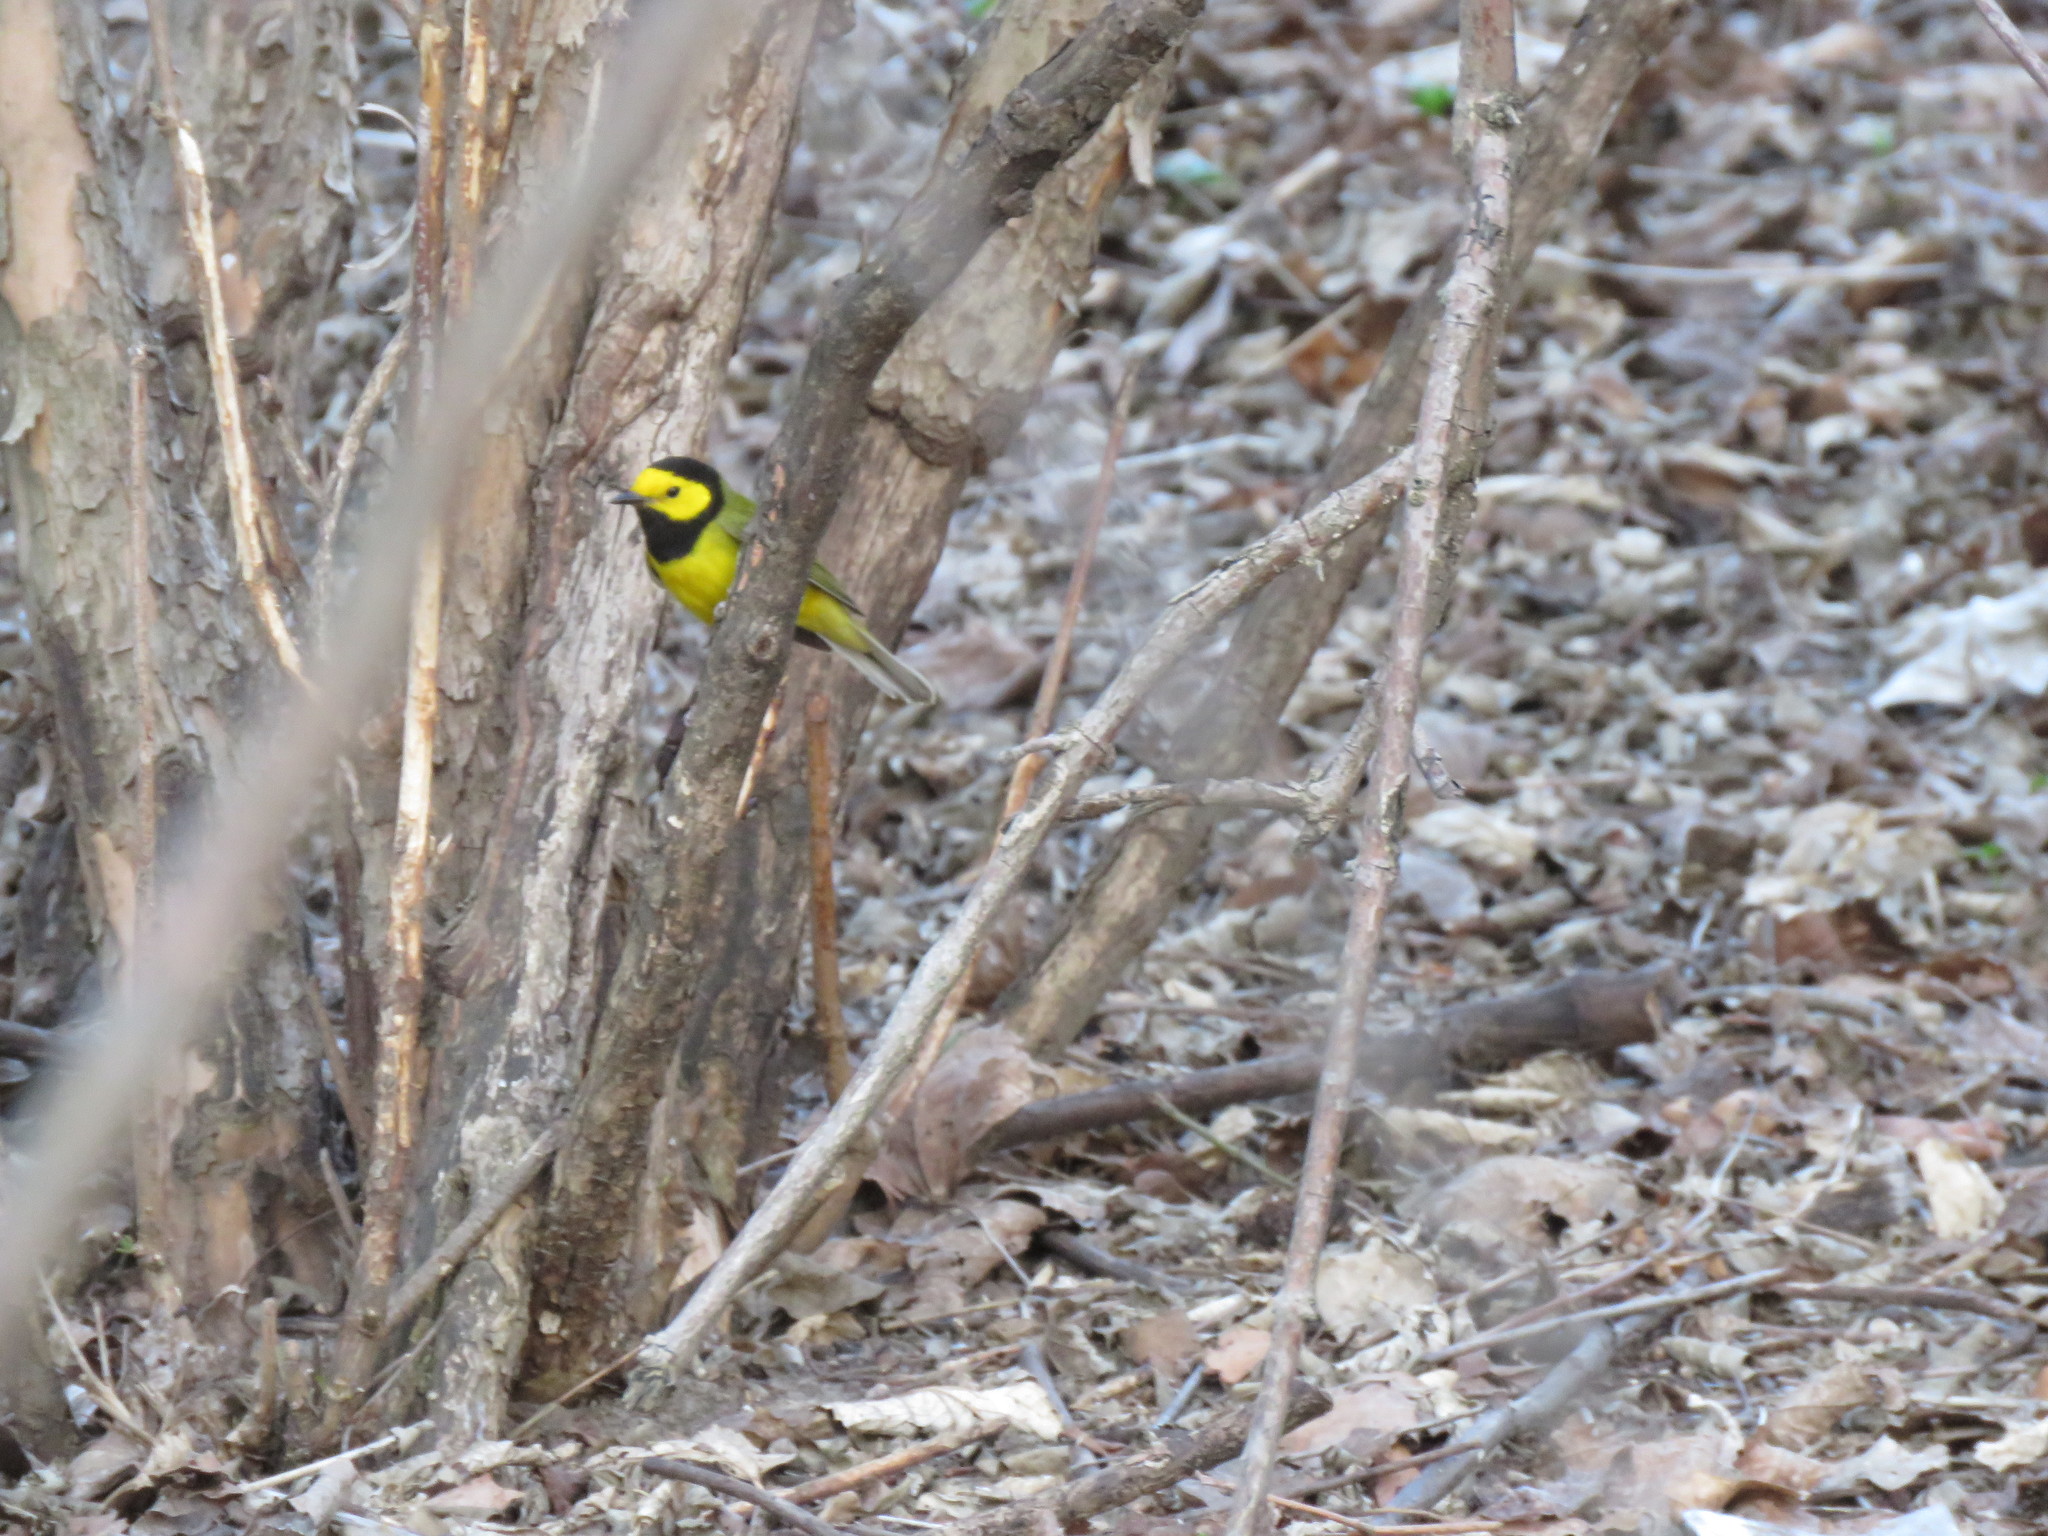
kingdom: Animalia
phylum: Chordata
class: Aves
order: Passeriformes
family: Parulidae
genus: Setophaga
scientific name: Setophaga citrina
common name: Hooded warbler
